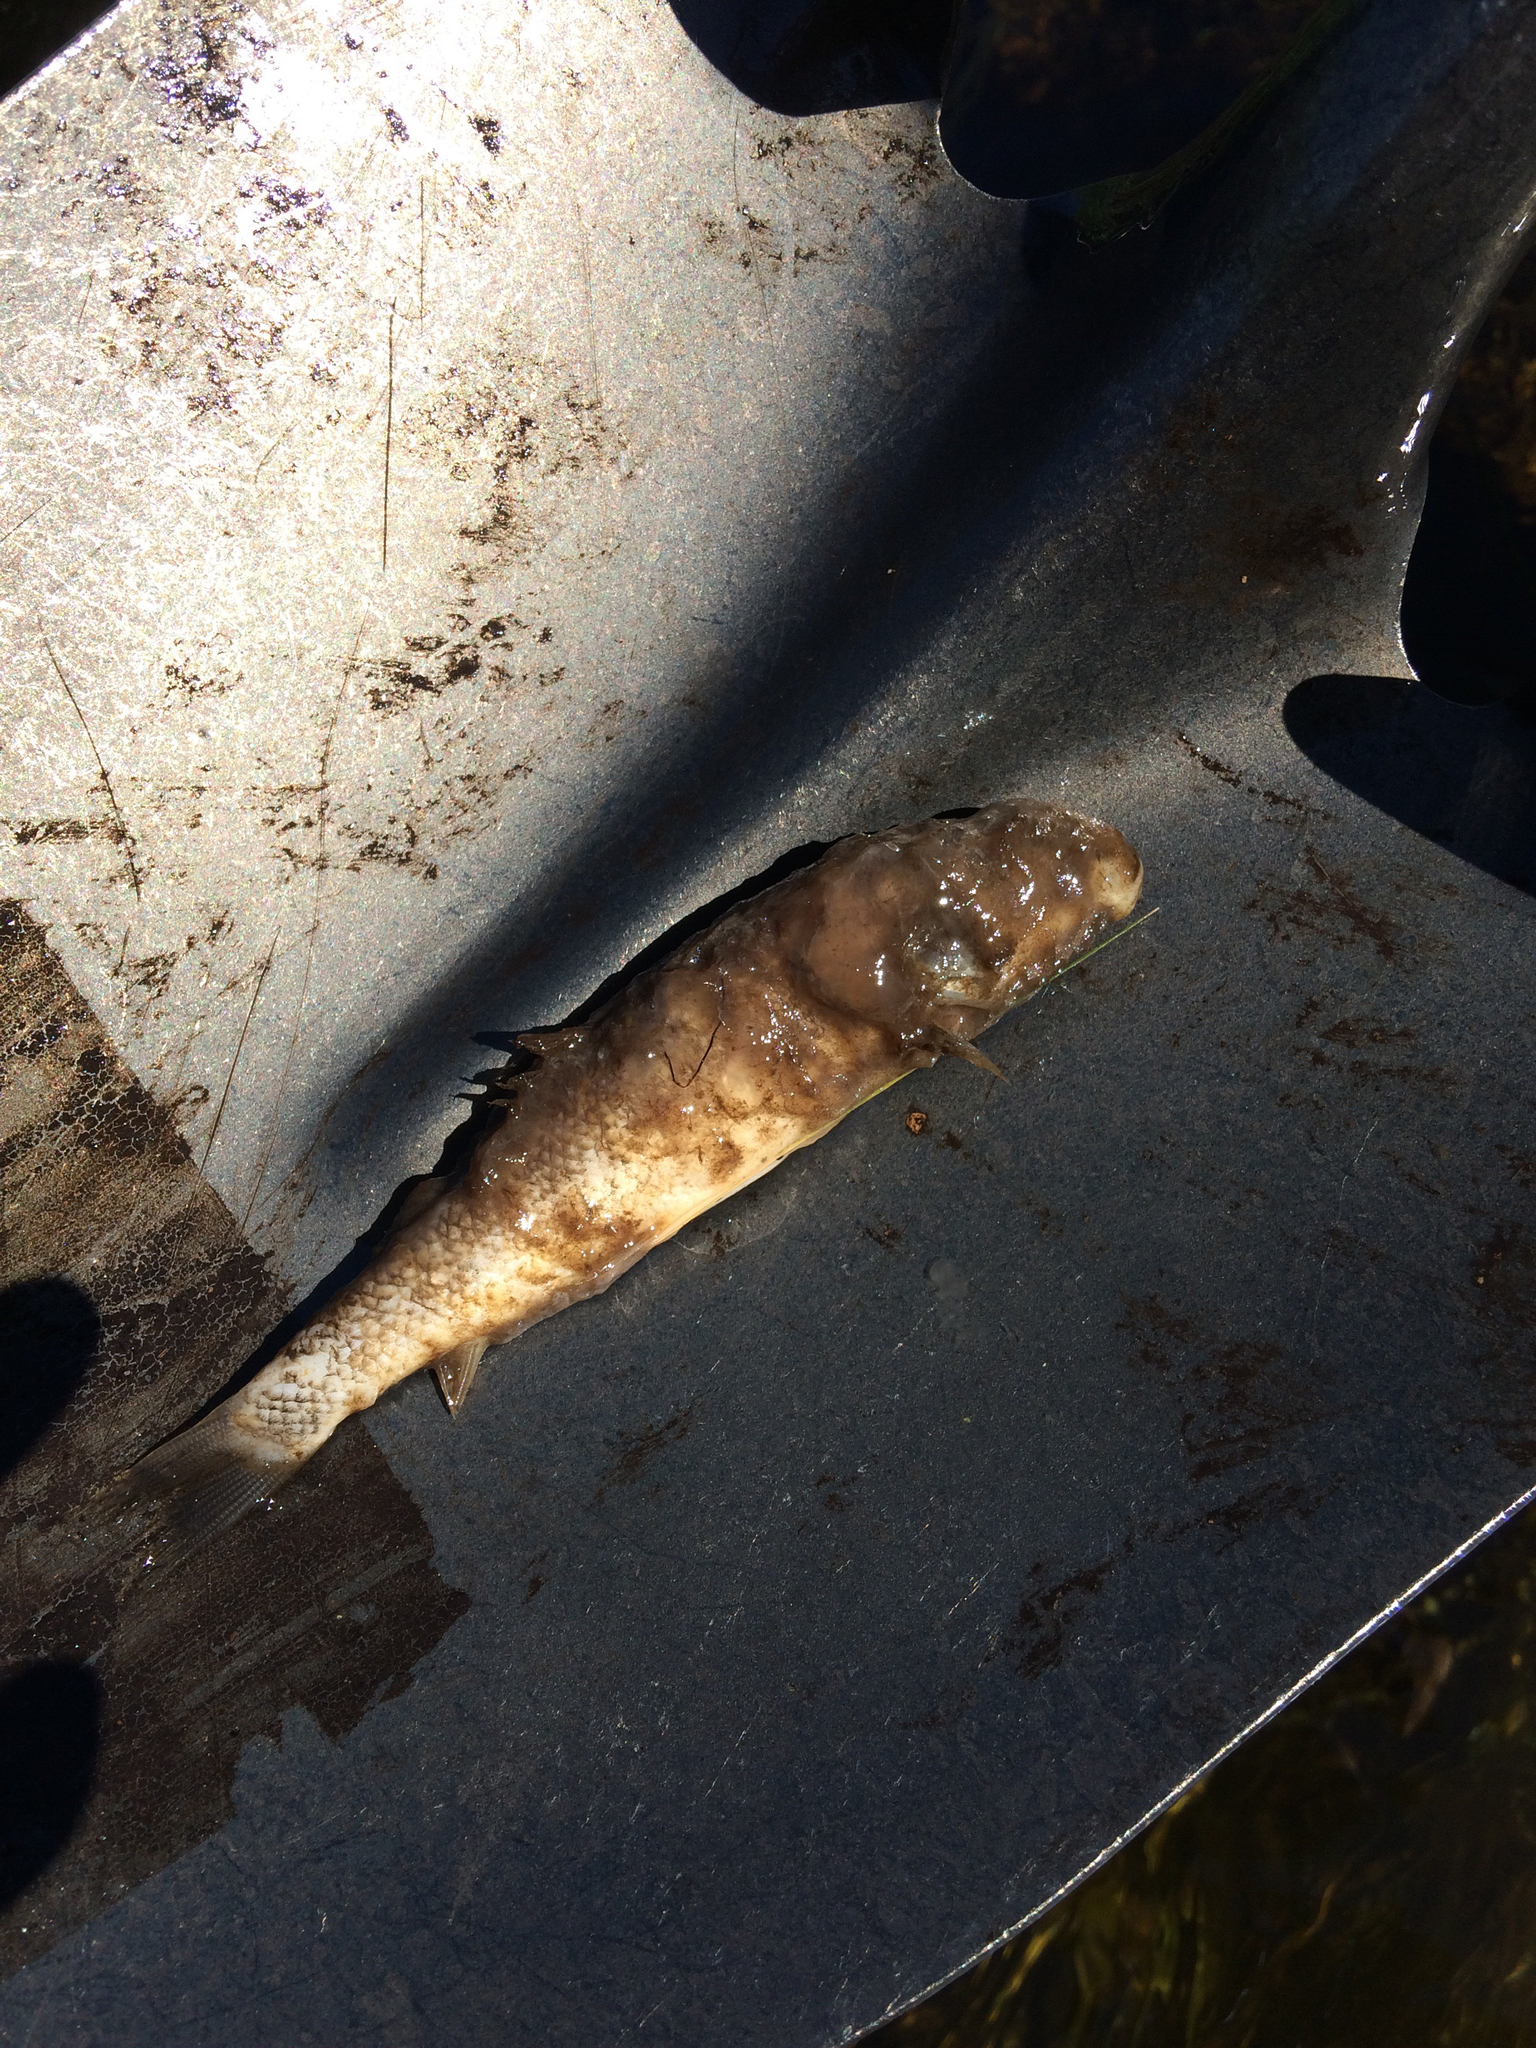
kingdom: Animalia
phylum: Chordata
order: Cypriniformes
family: Catostomidae
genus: Catostomus
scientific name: Catostomus commersonii
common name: White sucker
